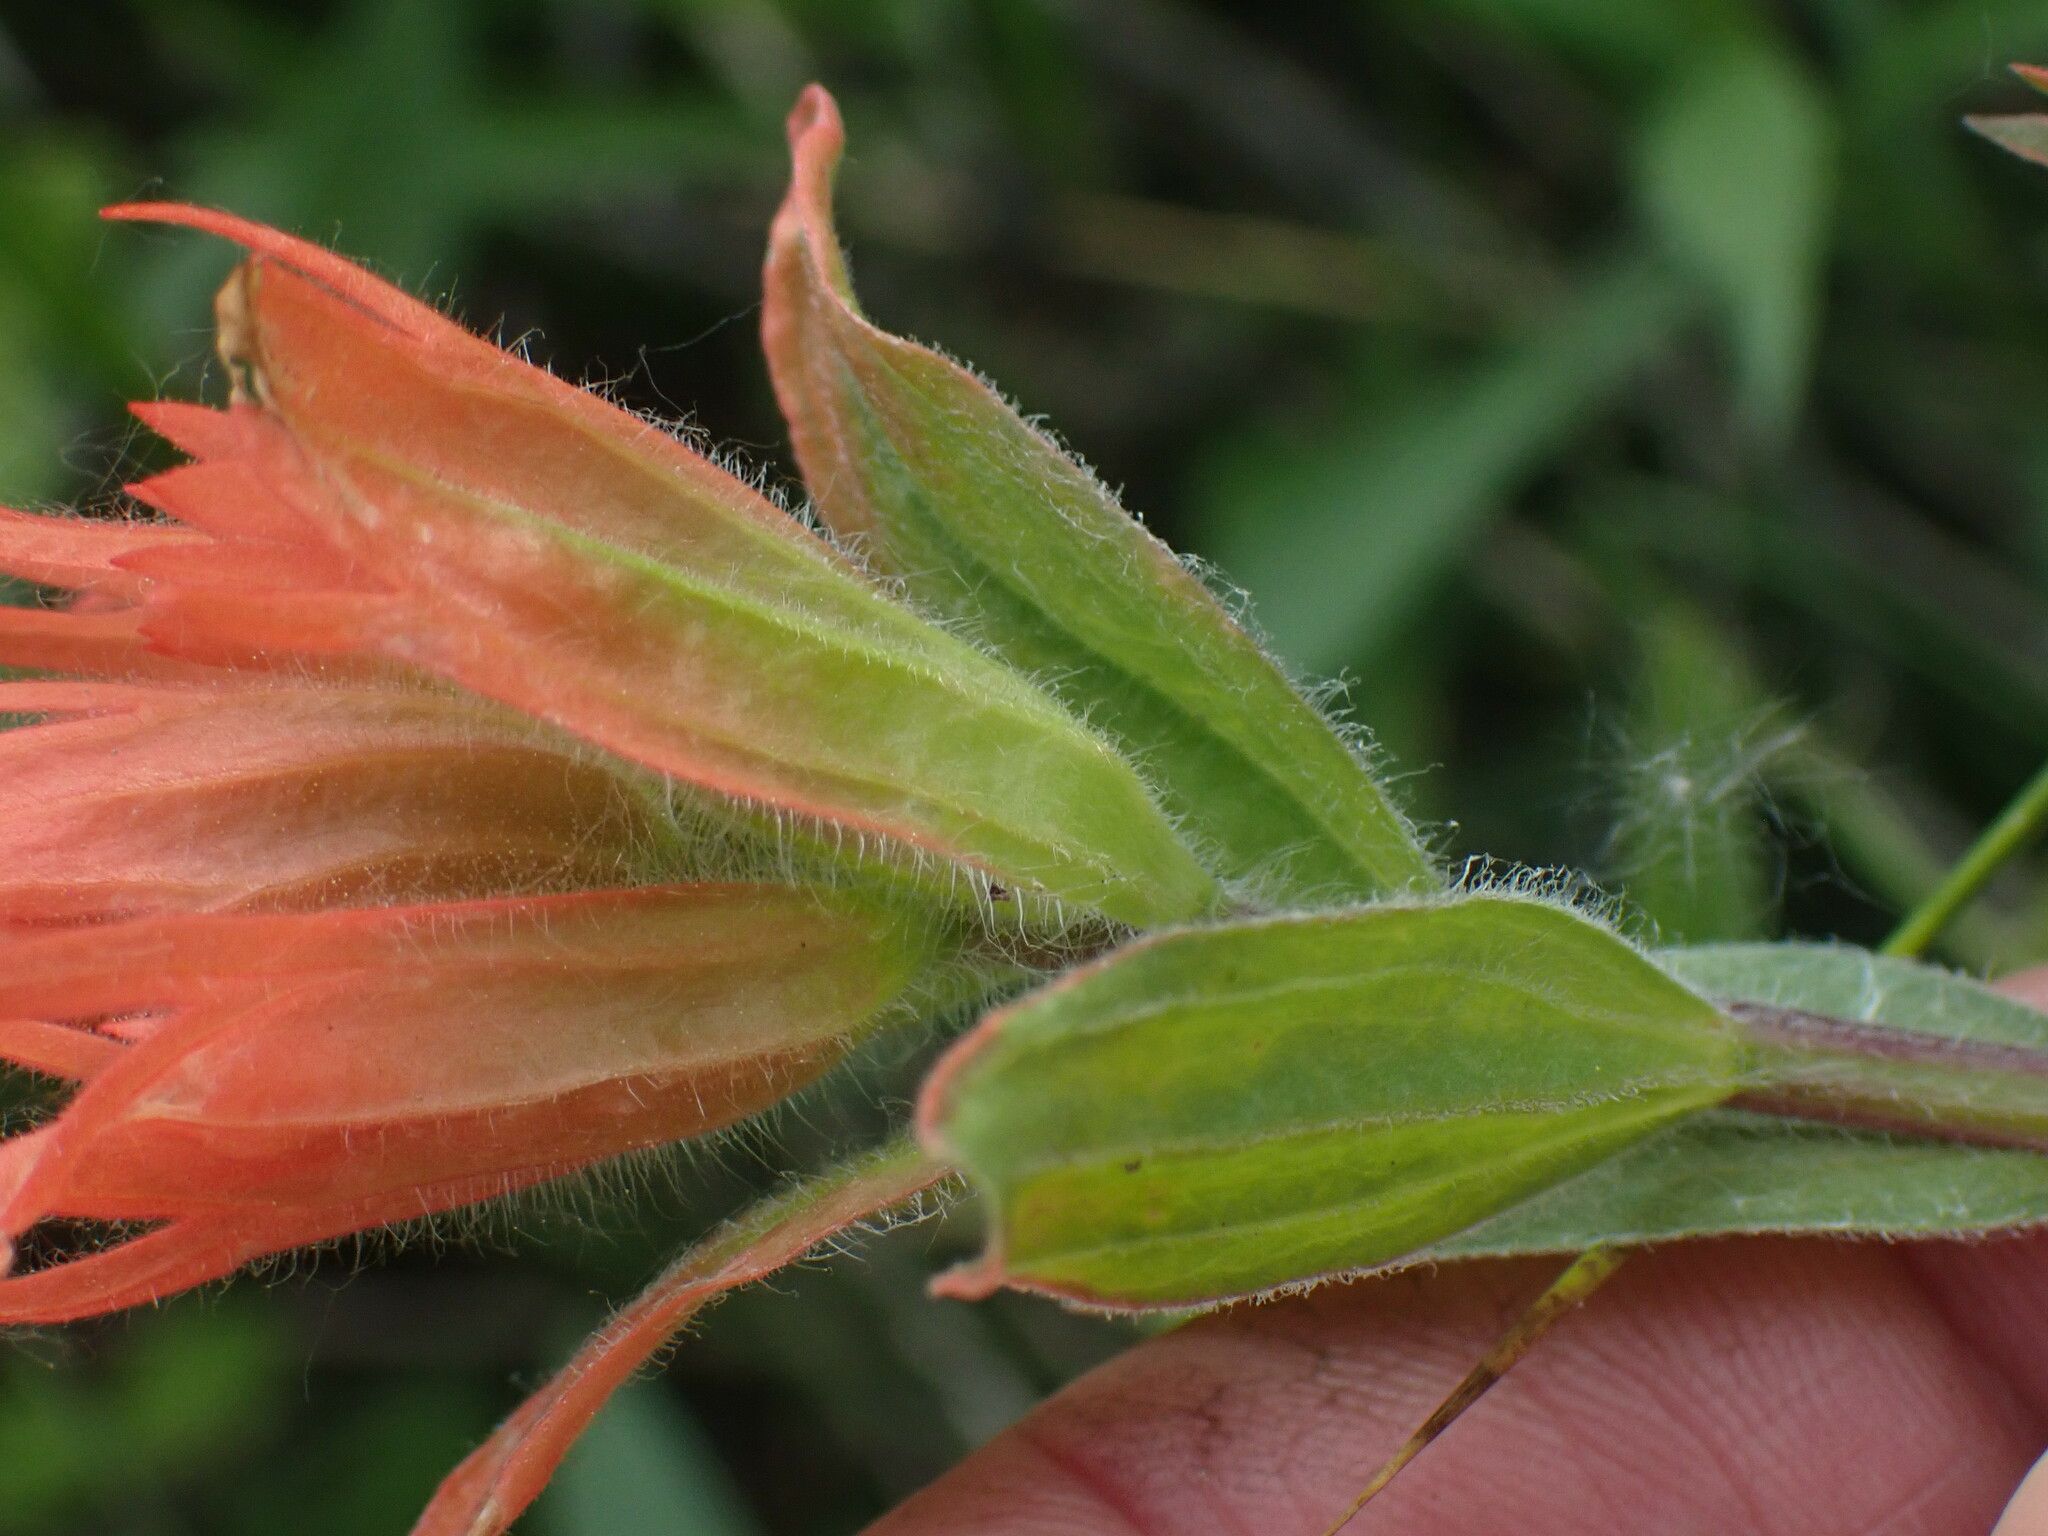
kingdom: Plantae
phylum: Tracheophyta
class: Magnoliopsida
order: Lamiales
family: Orobanchaceae
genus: Castilleja
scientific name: Castilleja miniata
